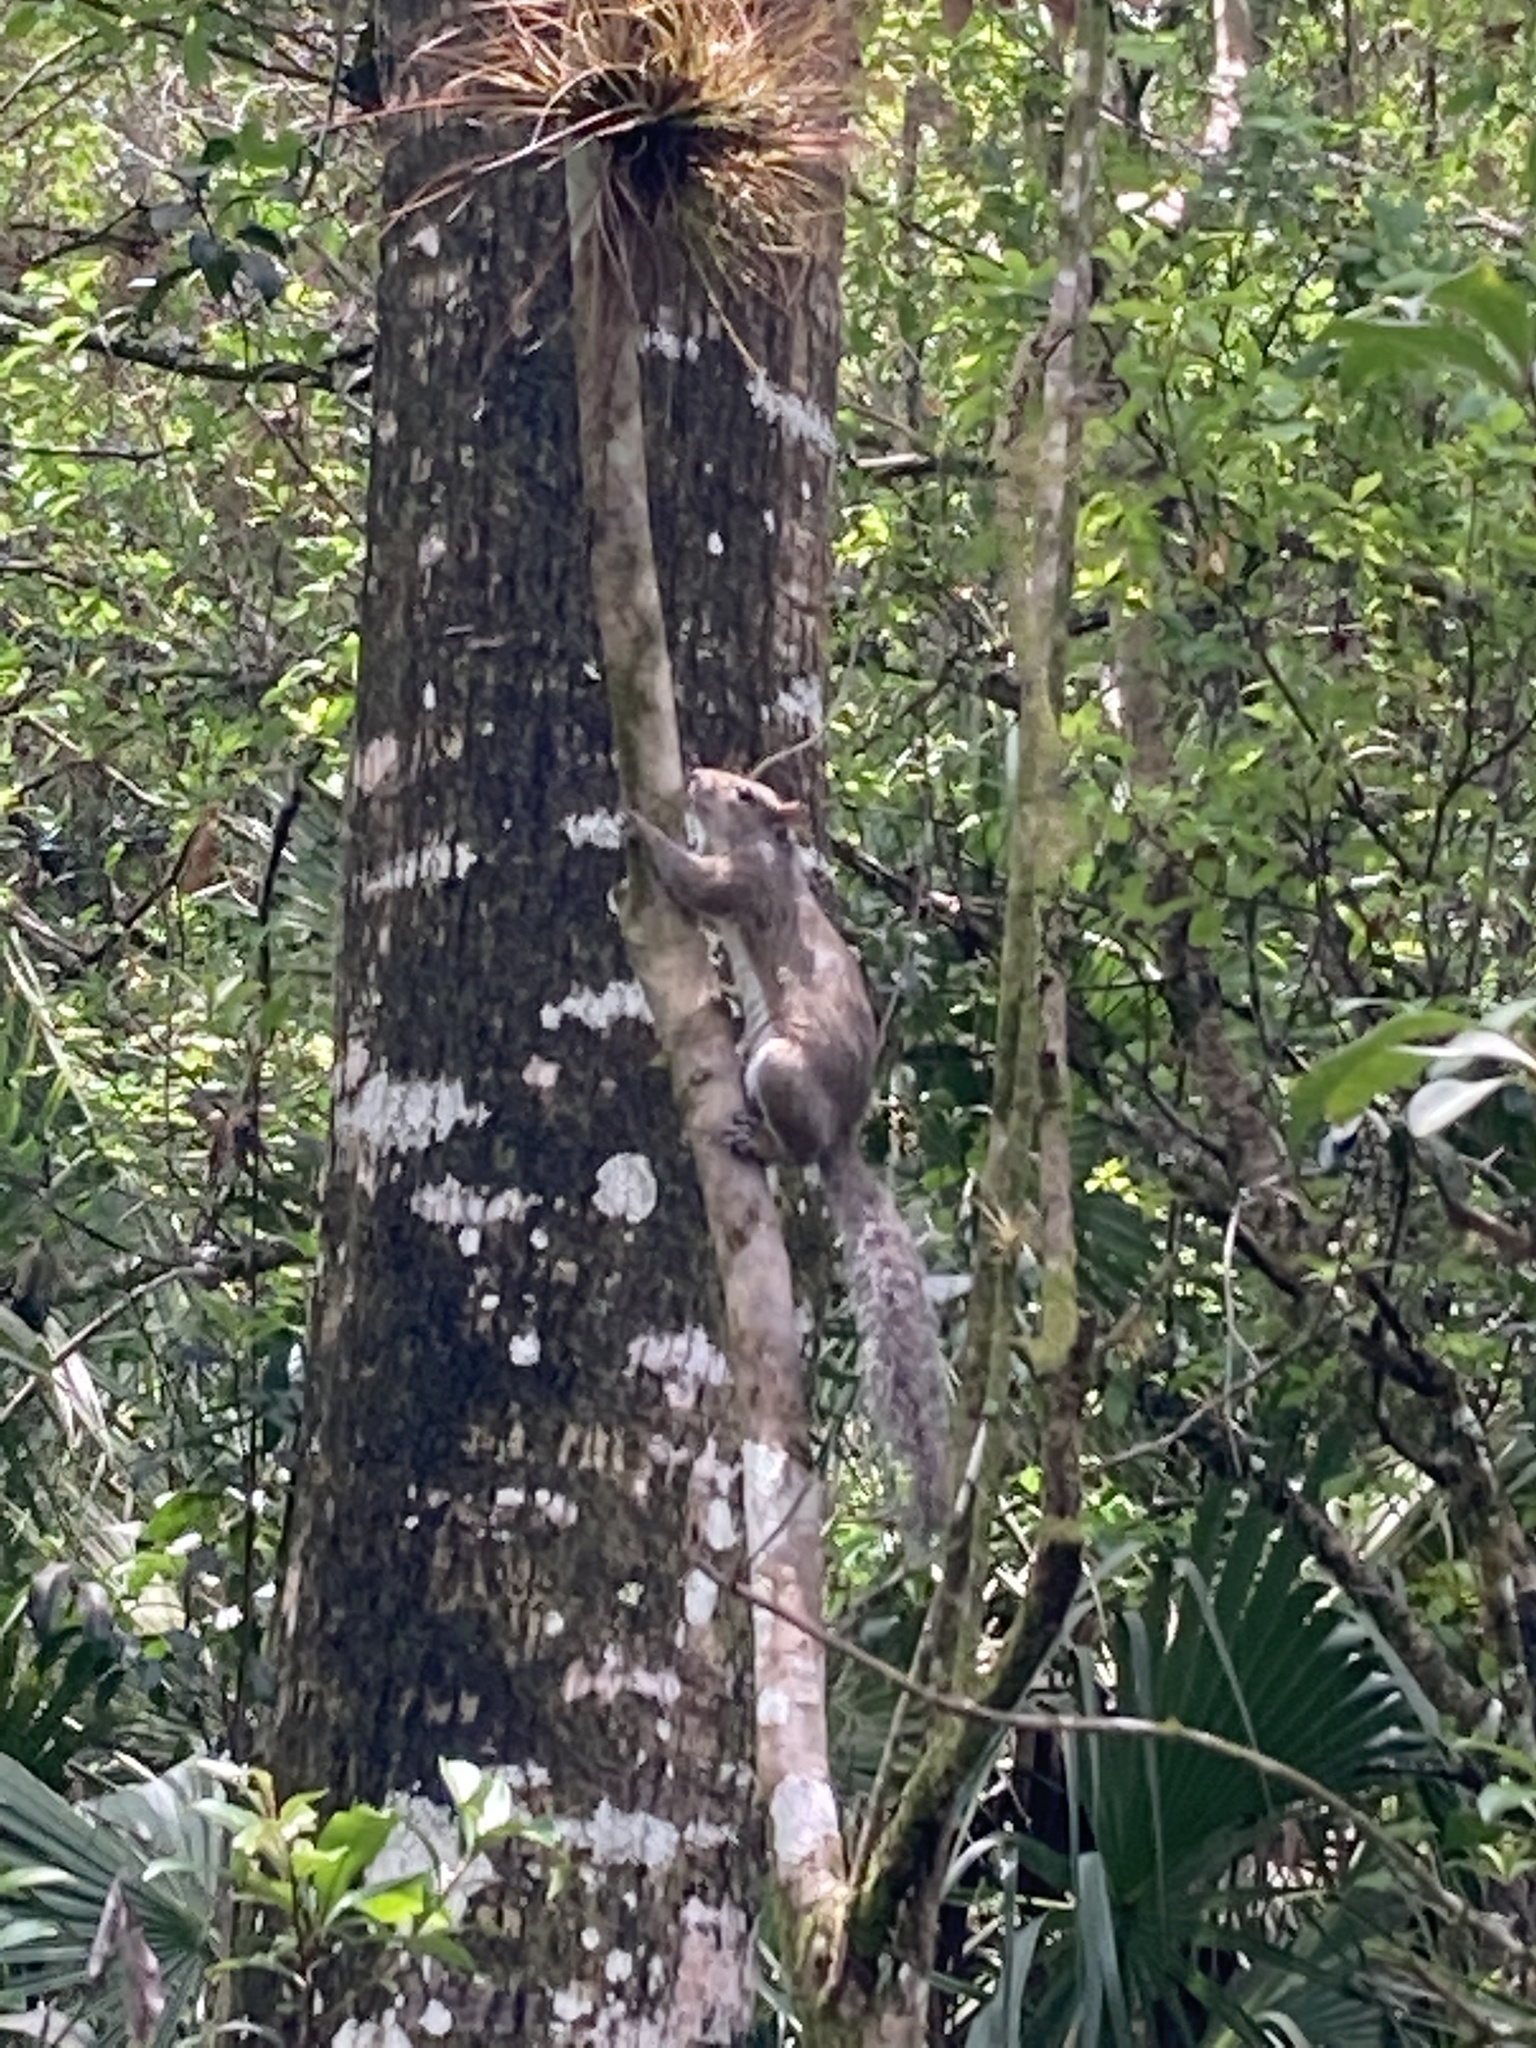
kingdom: Animalia
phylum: Chordata
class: Mammalia
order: Rodentia
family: Sciuridae
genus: Sciurus
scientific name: Sciurus carolinensis
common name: Eastern gray squirrel
